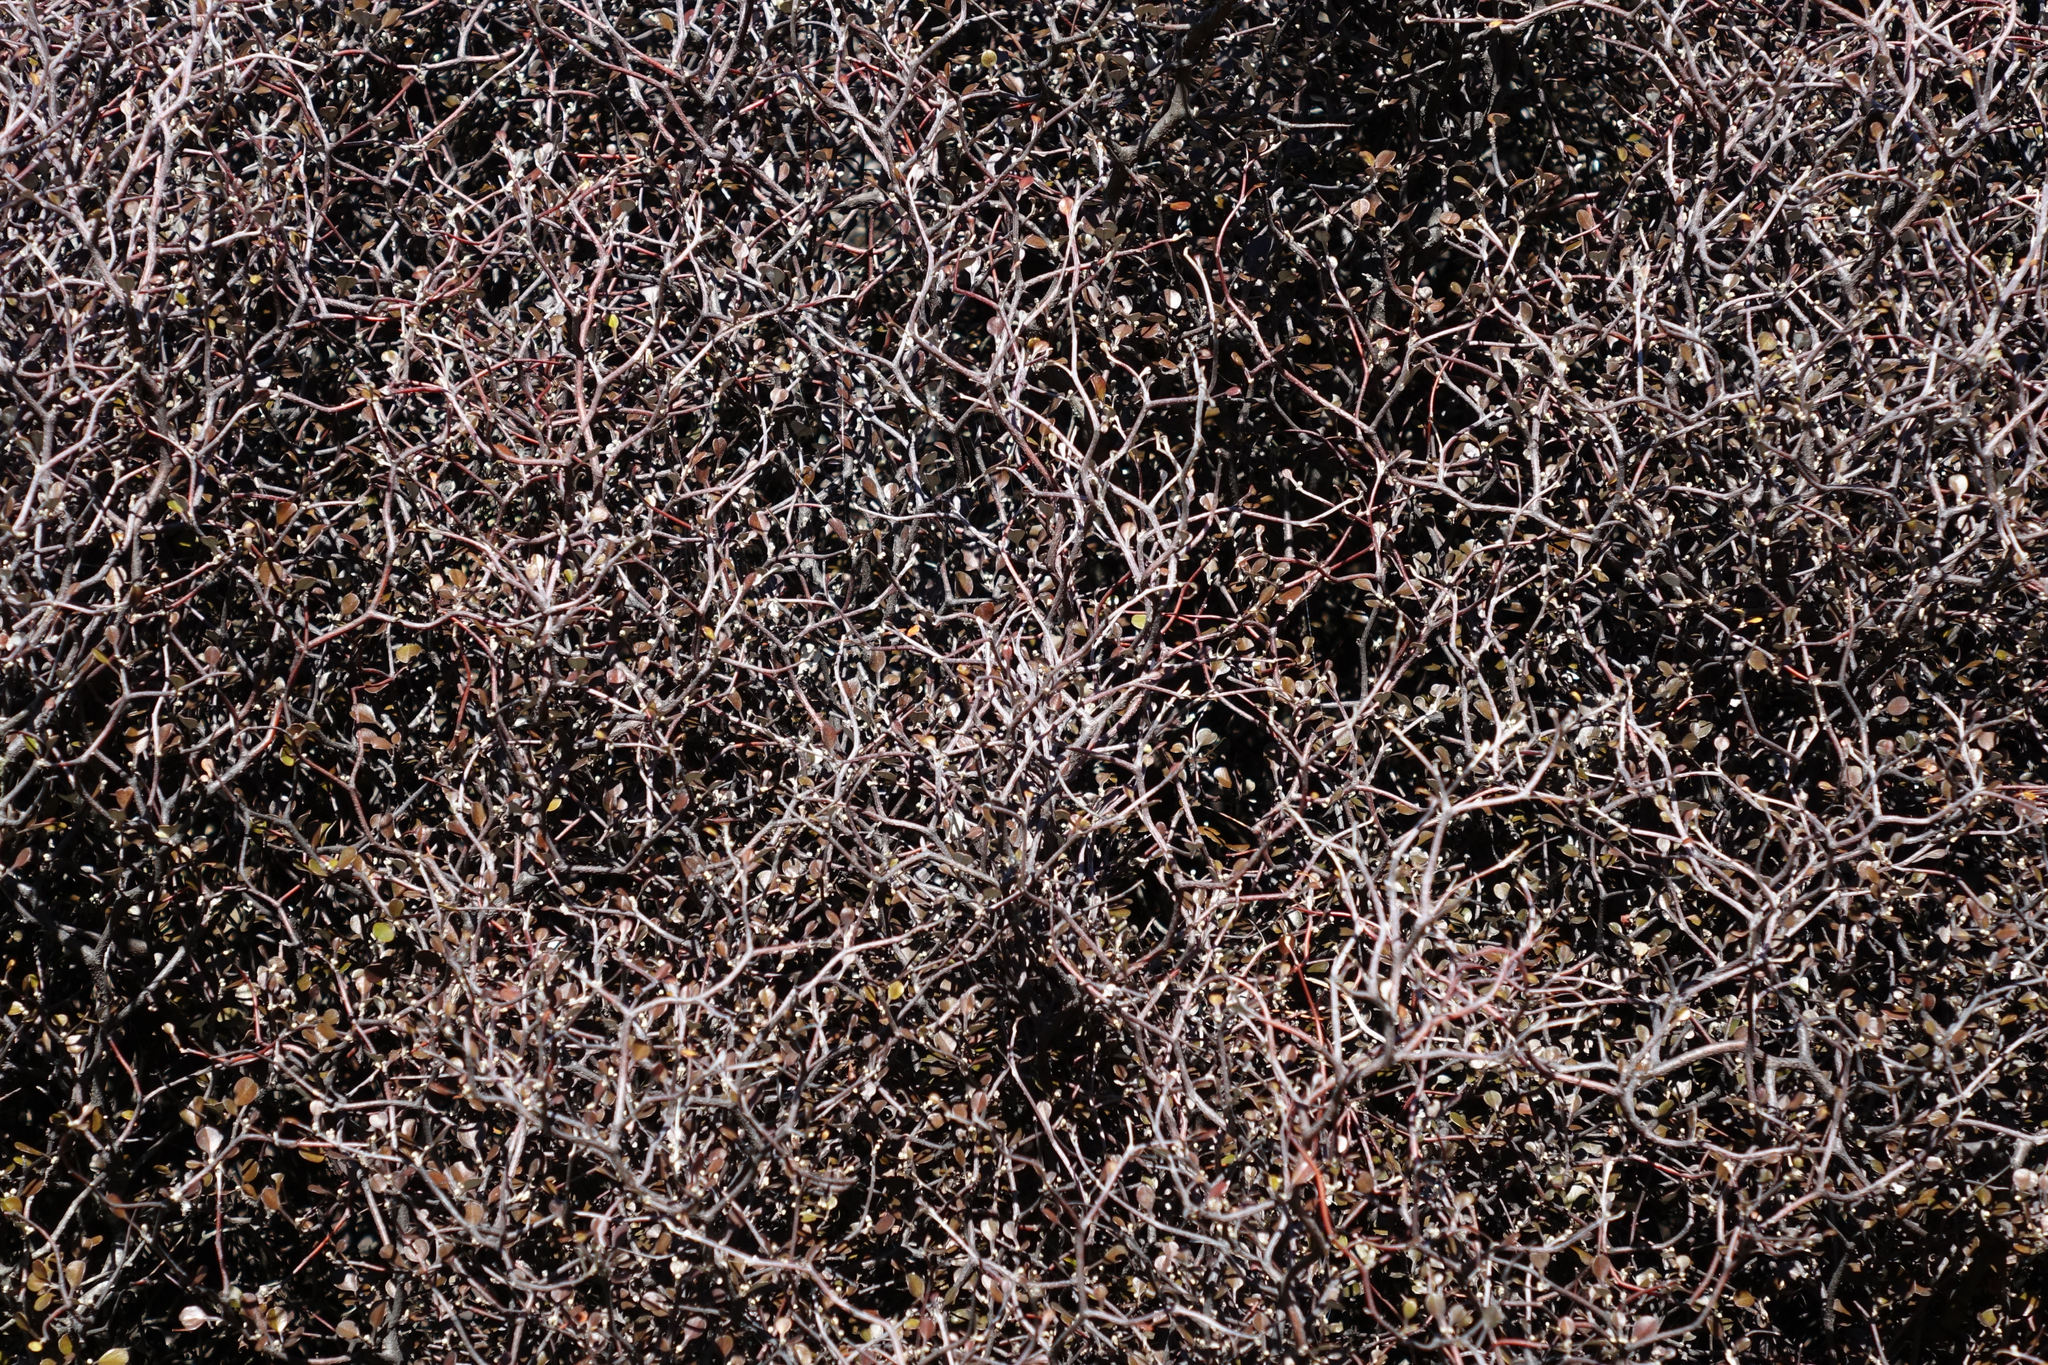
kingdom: Plantae
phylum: Tracheophyta
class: Magnoliopsida
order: Asterales
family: Argophyllaceae
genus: Corokia
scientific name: Corokia cotoneaster
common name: Wire nettingbush
